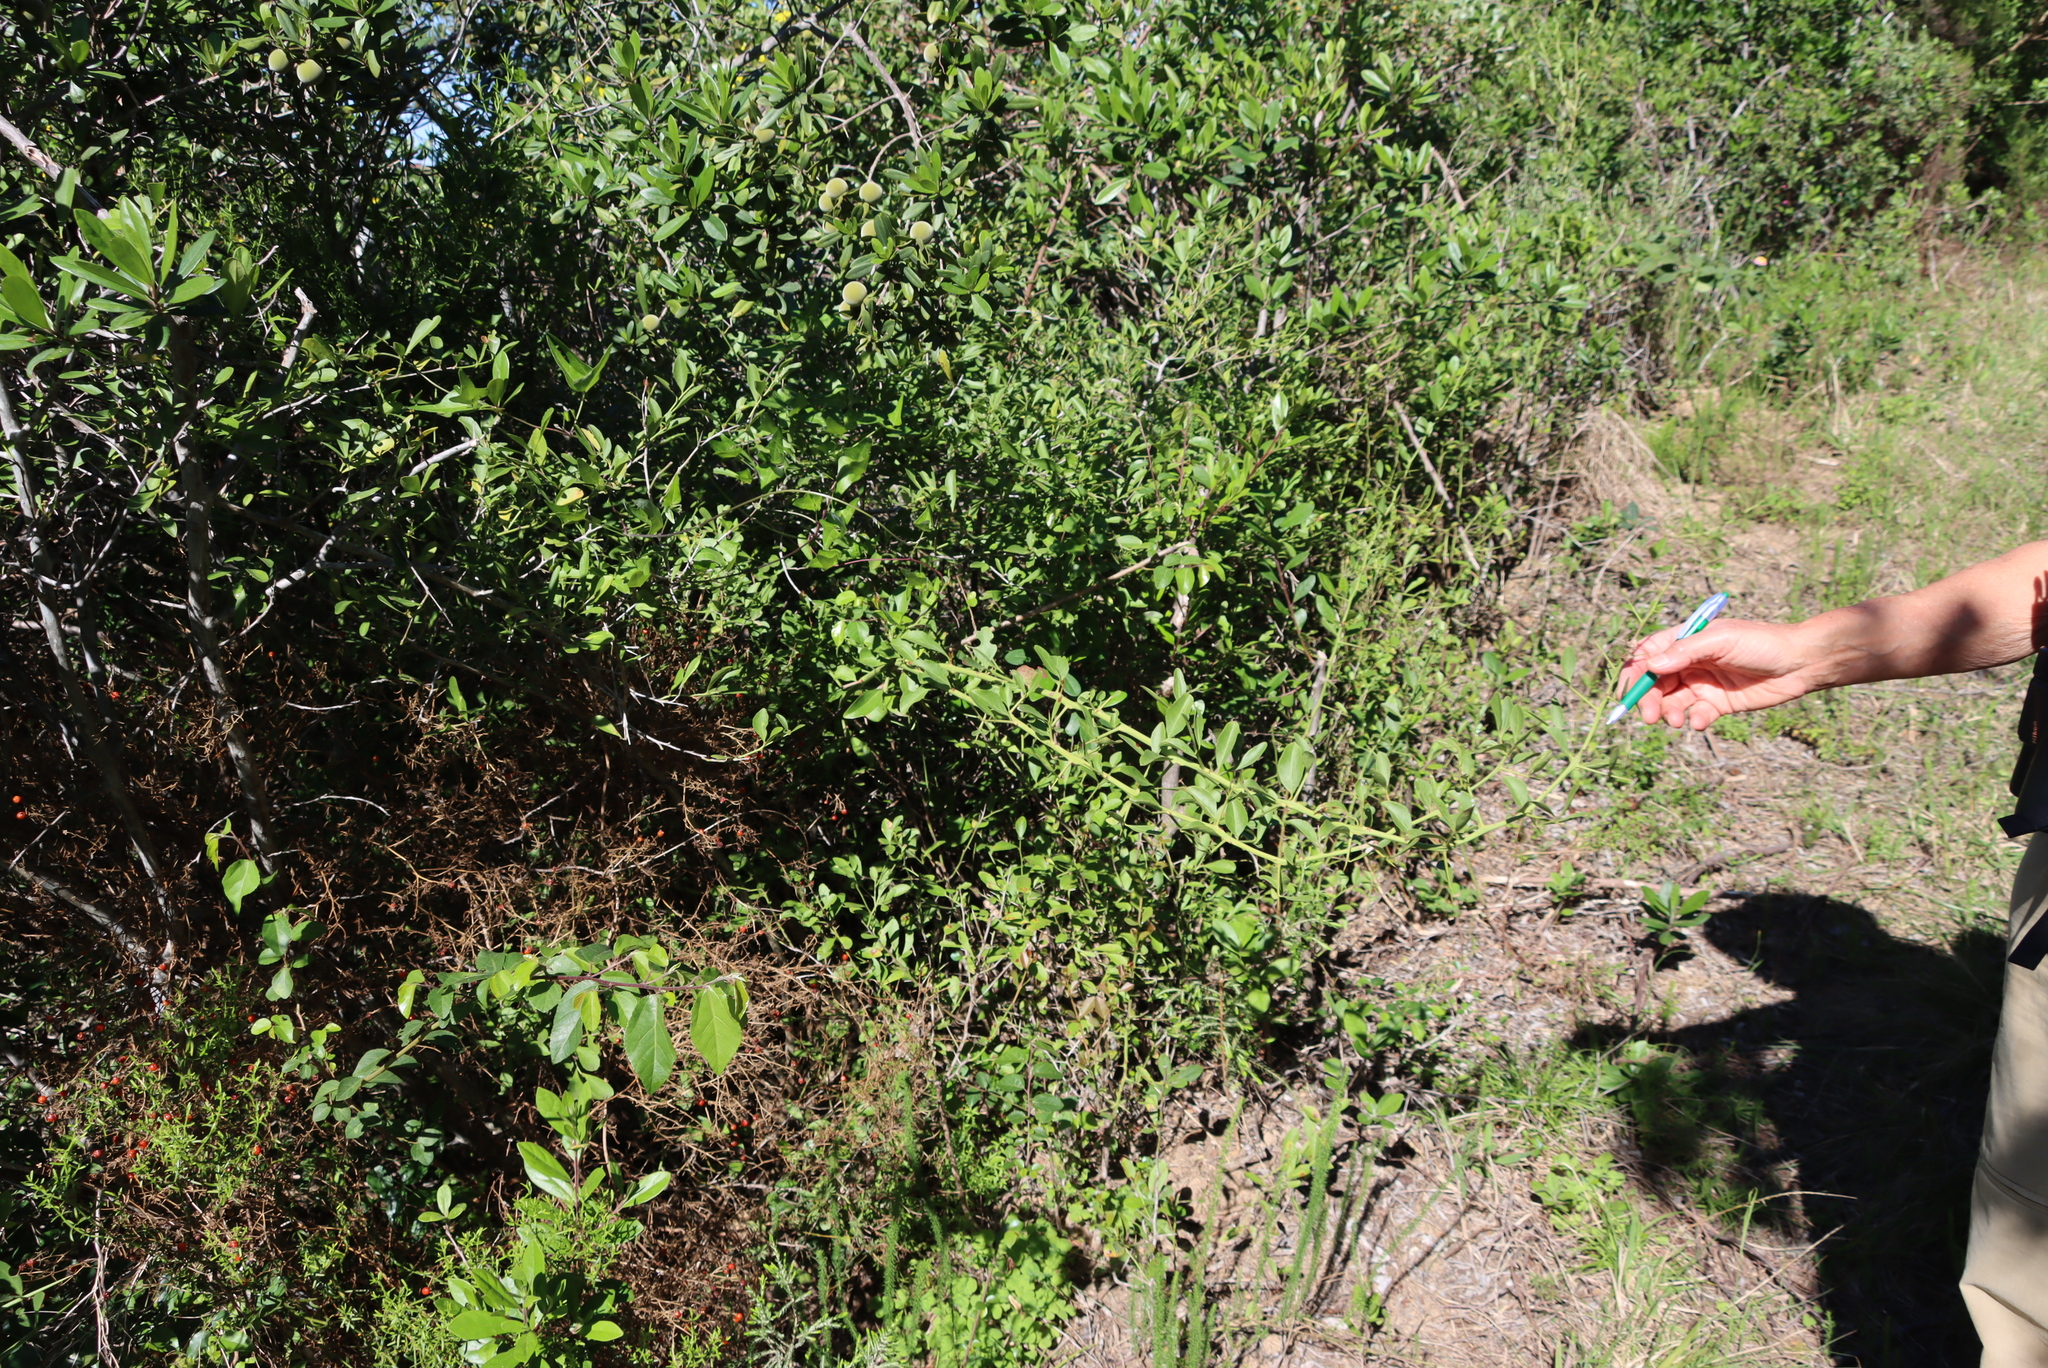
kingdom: Plantae
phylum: Tracheophyta
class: Magnoliopsida
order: Celastrales
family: Celastraceae
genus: Gymnosporia
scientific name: Gymnosporia buxifolia
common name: Common spike-thorn
